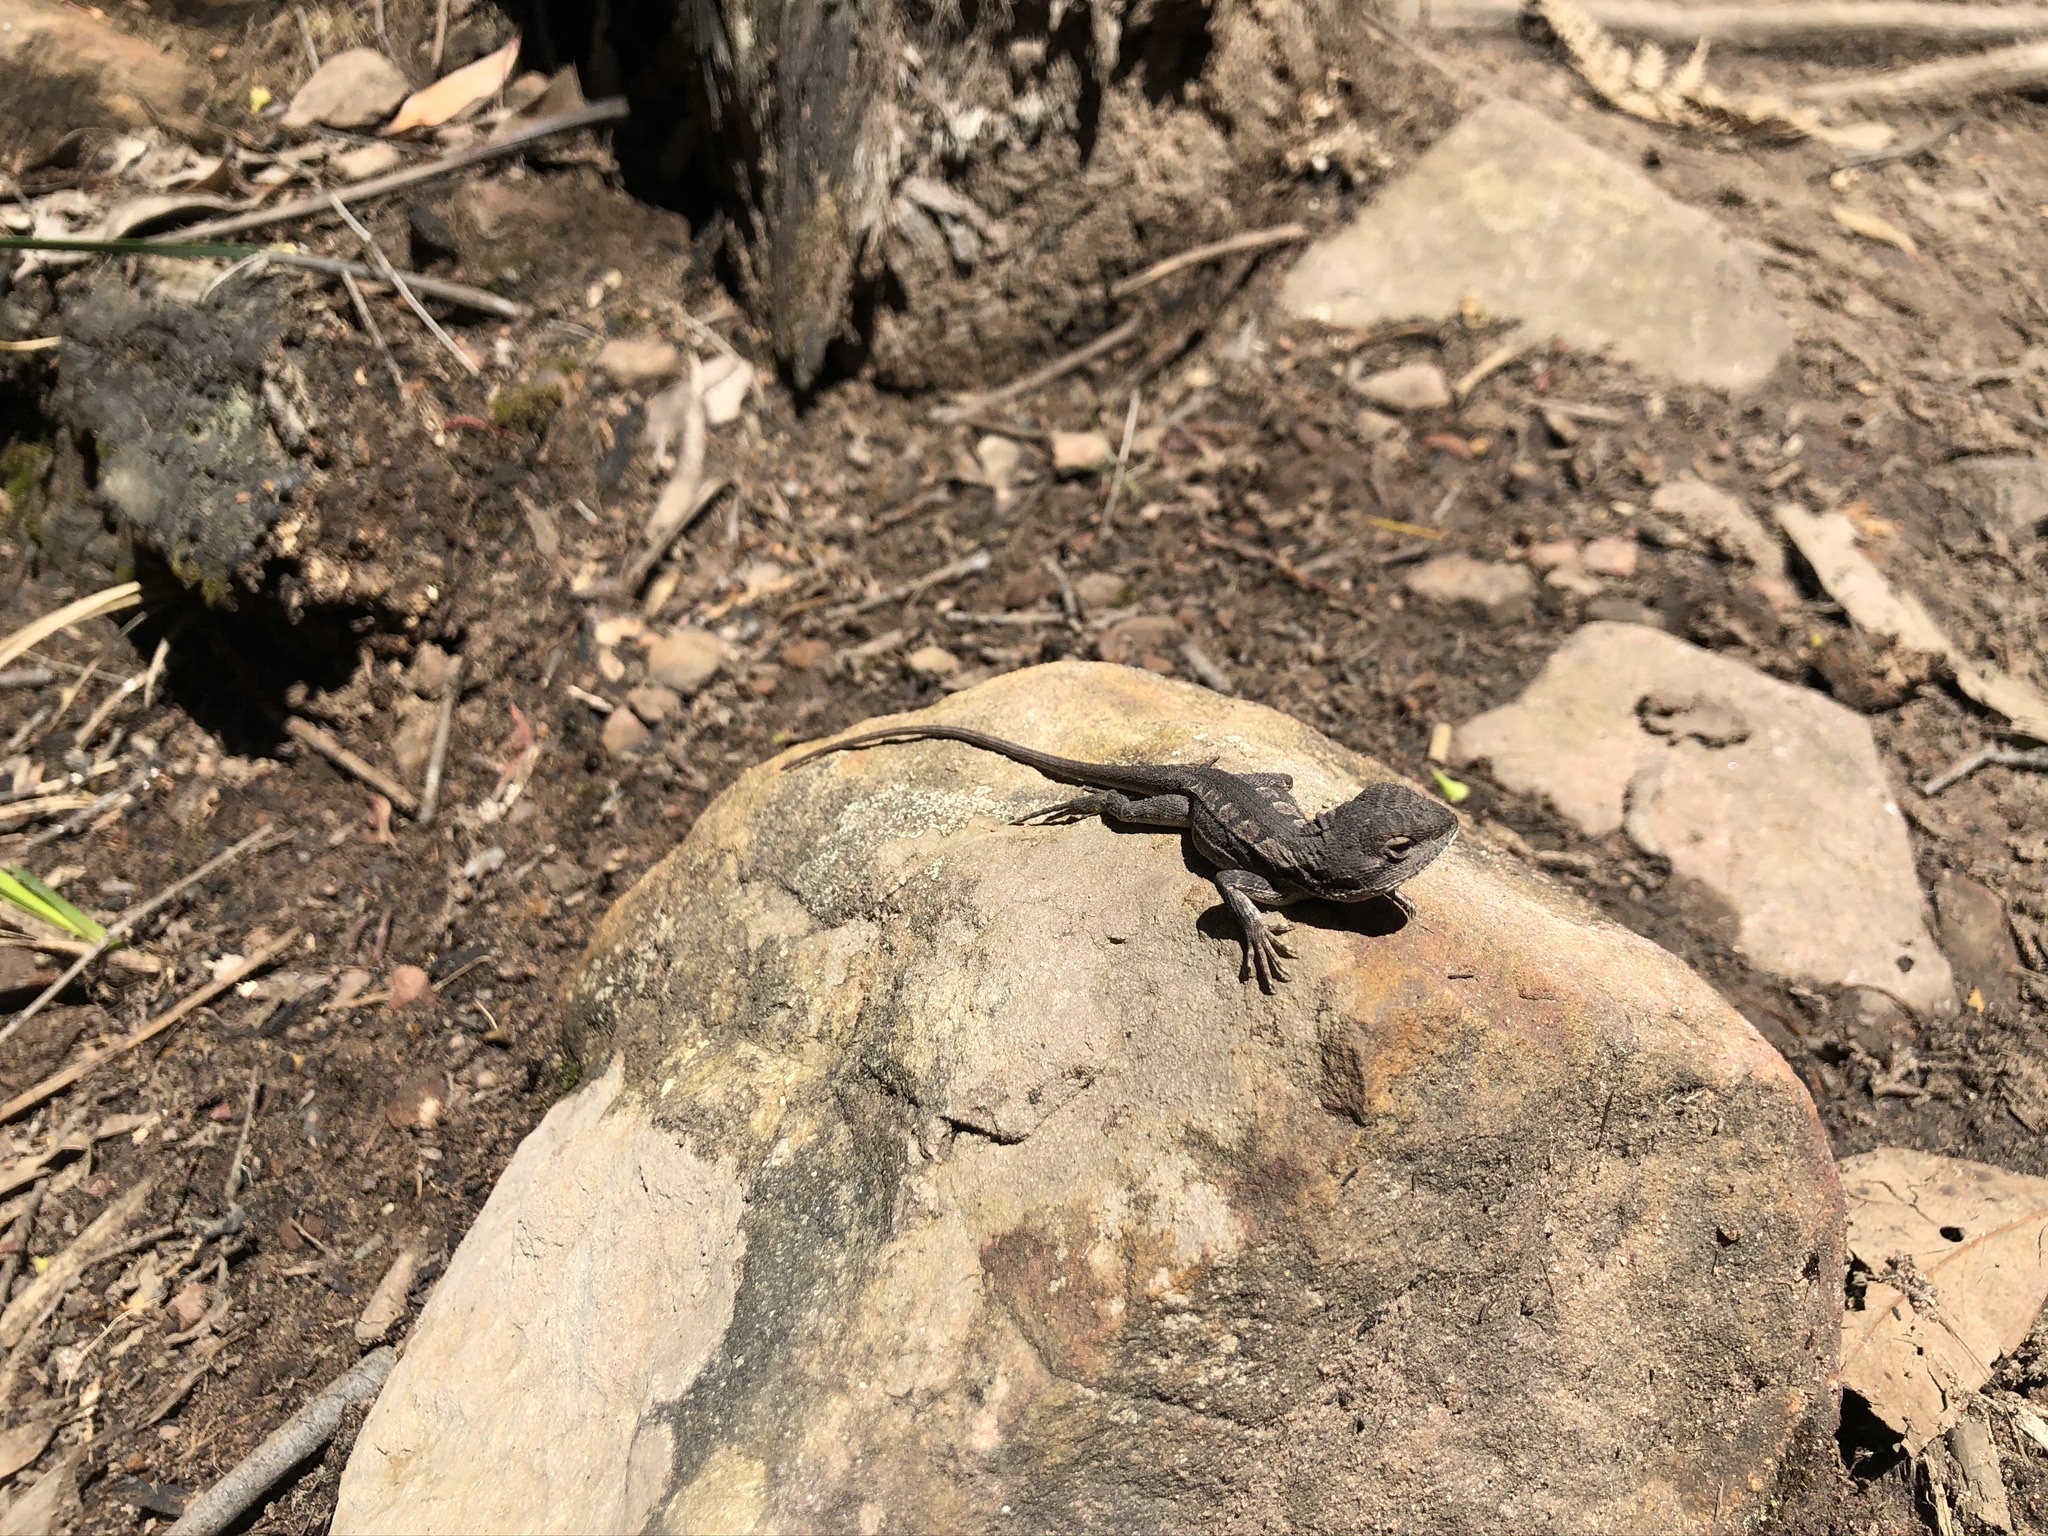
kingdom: Animalia
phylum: Chordata
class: Squamata
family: Agamidae
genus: Amphibolurus
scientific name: Amphibolurus muricatus
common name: Jacky lizard
